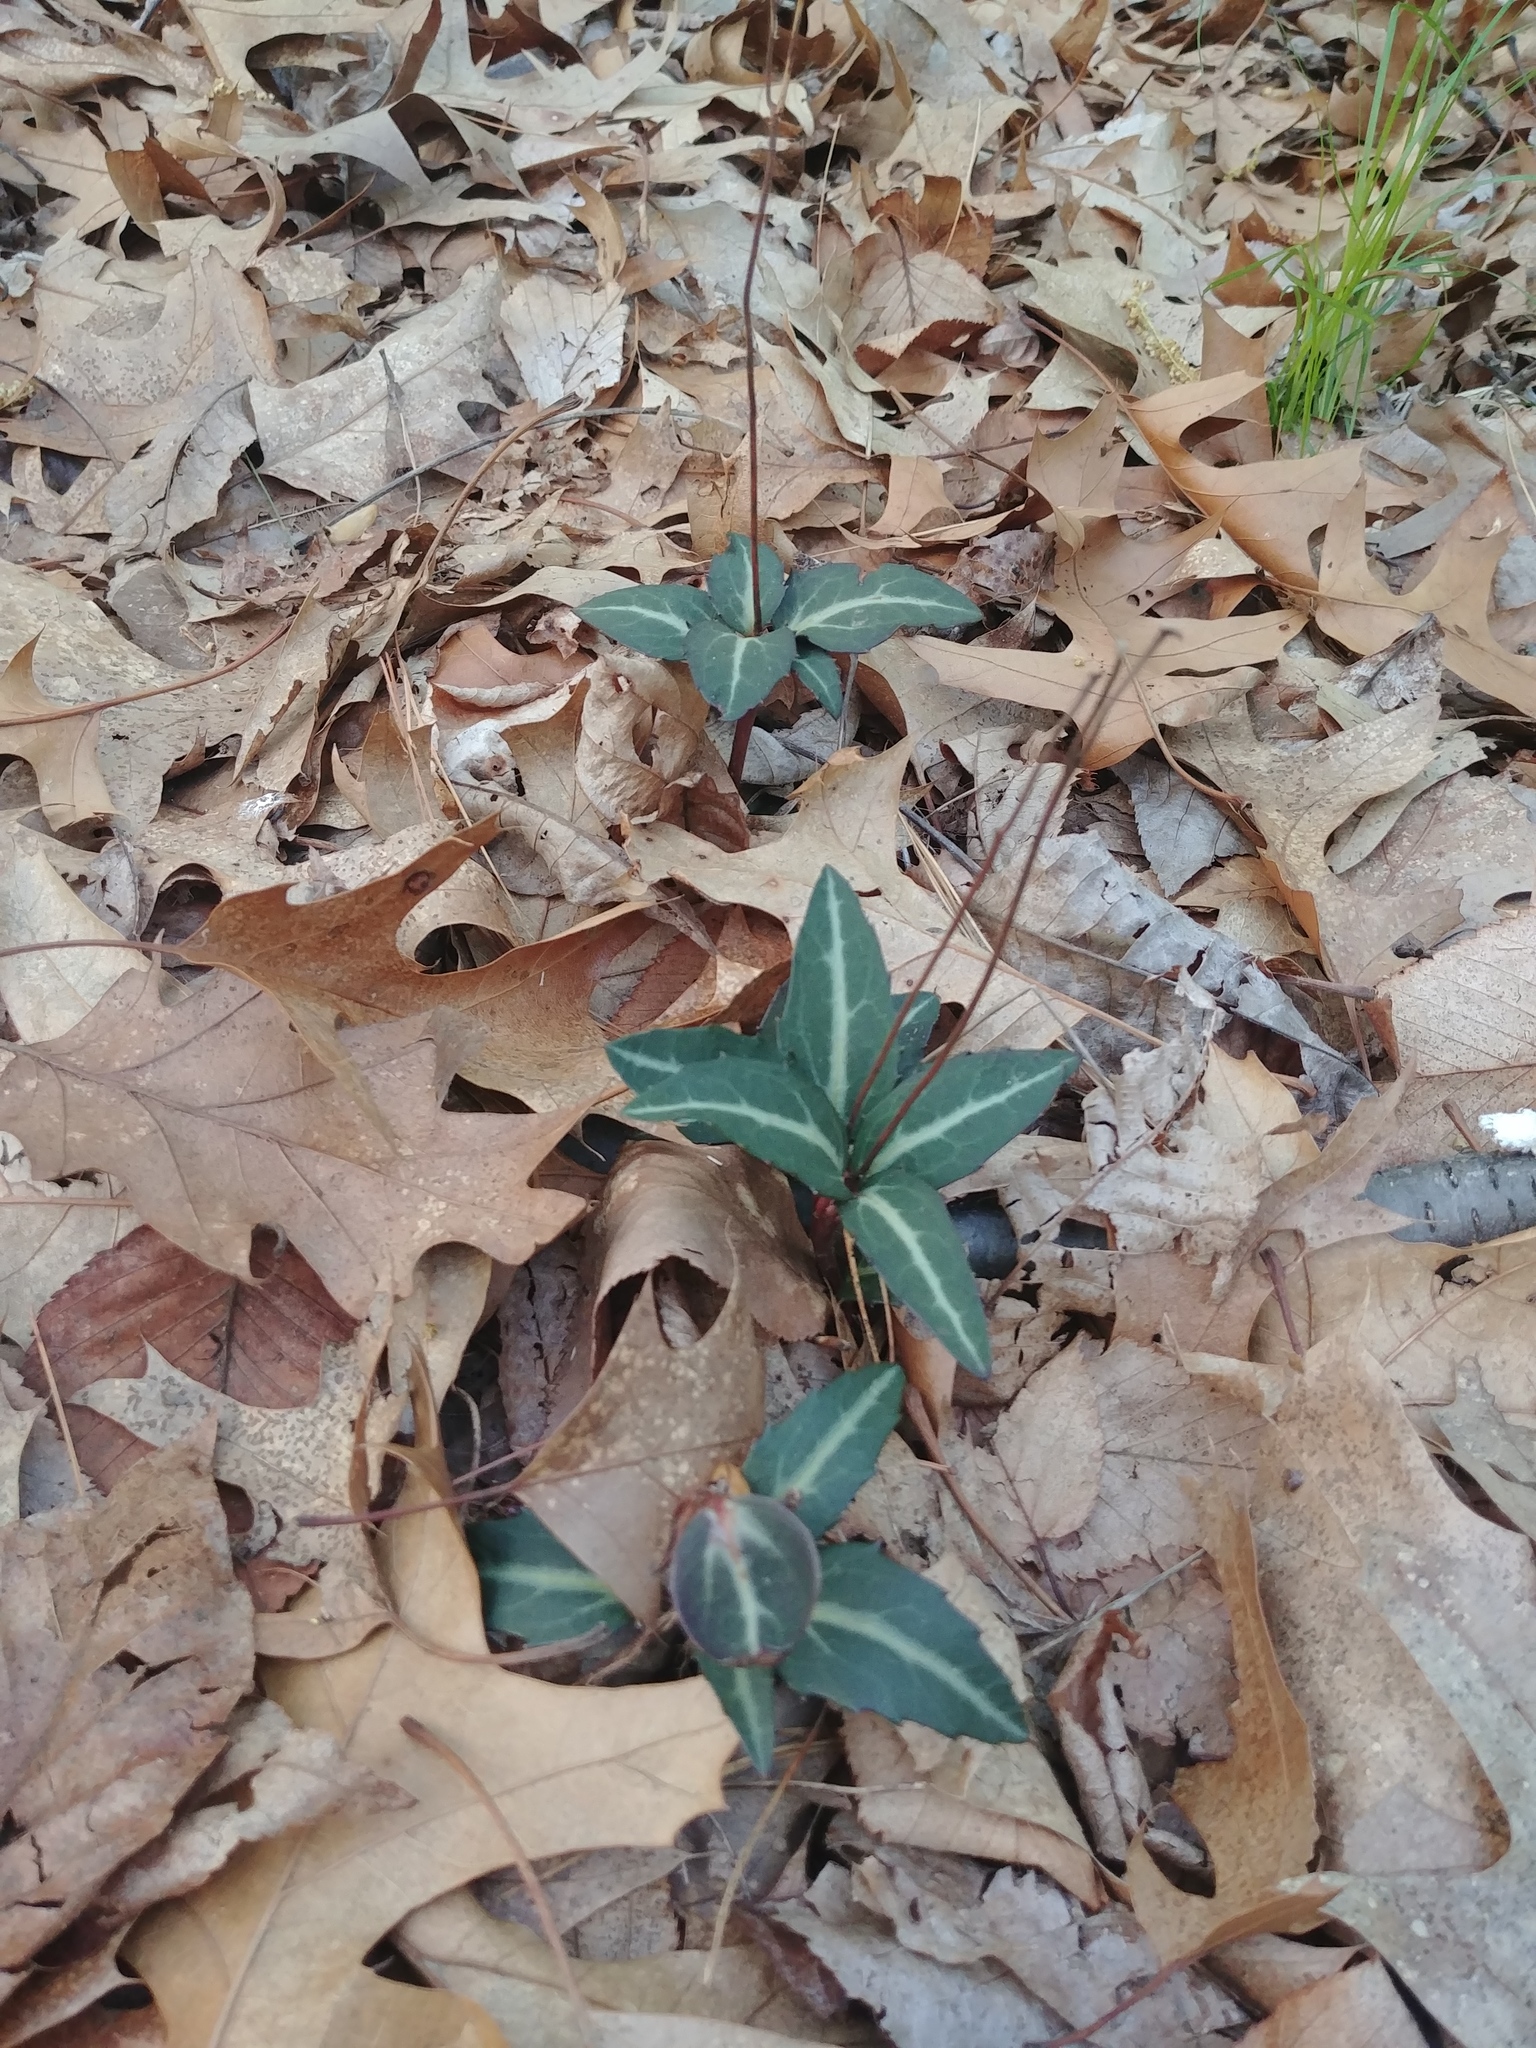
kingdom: Plantae
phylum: Tracheophyta
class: Magnoliopsida
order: Ericales
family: Ericaceae
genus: Chimaphila
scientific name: Chimaphila maculata
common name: Spotted pipsissewa
